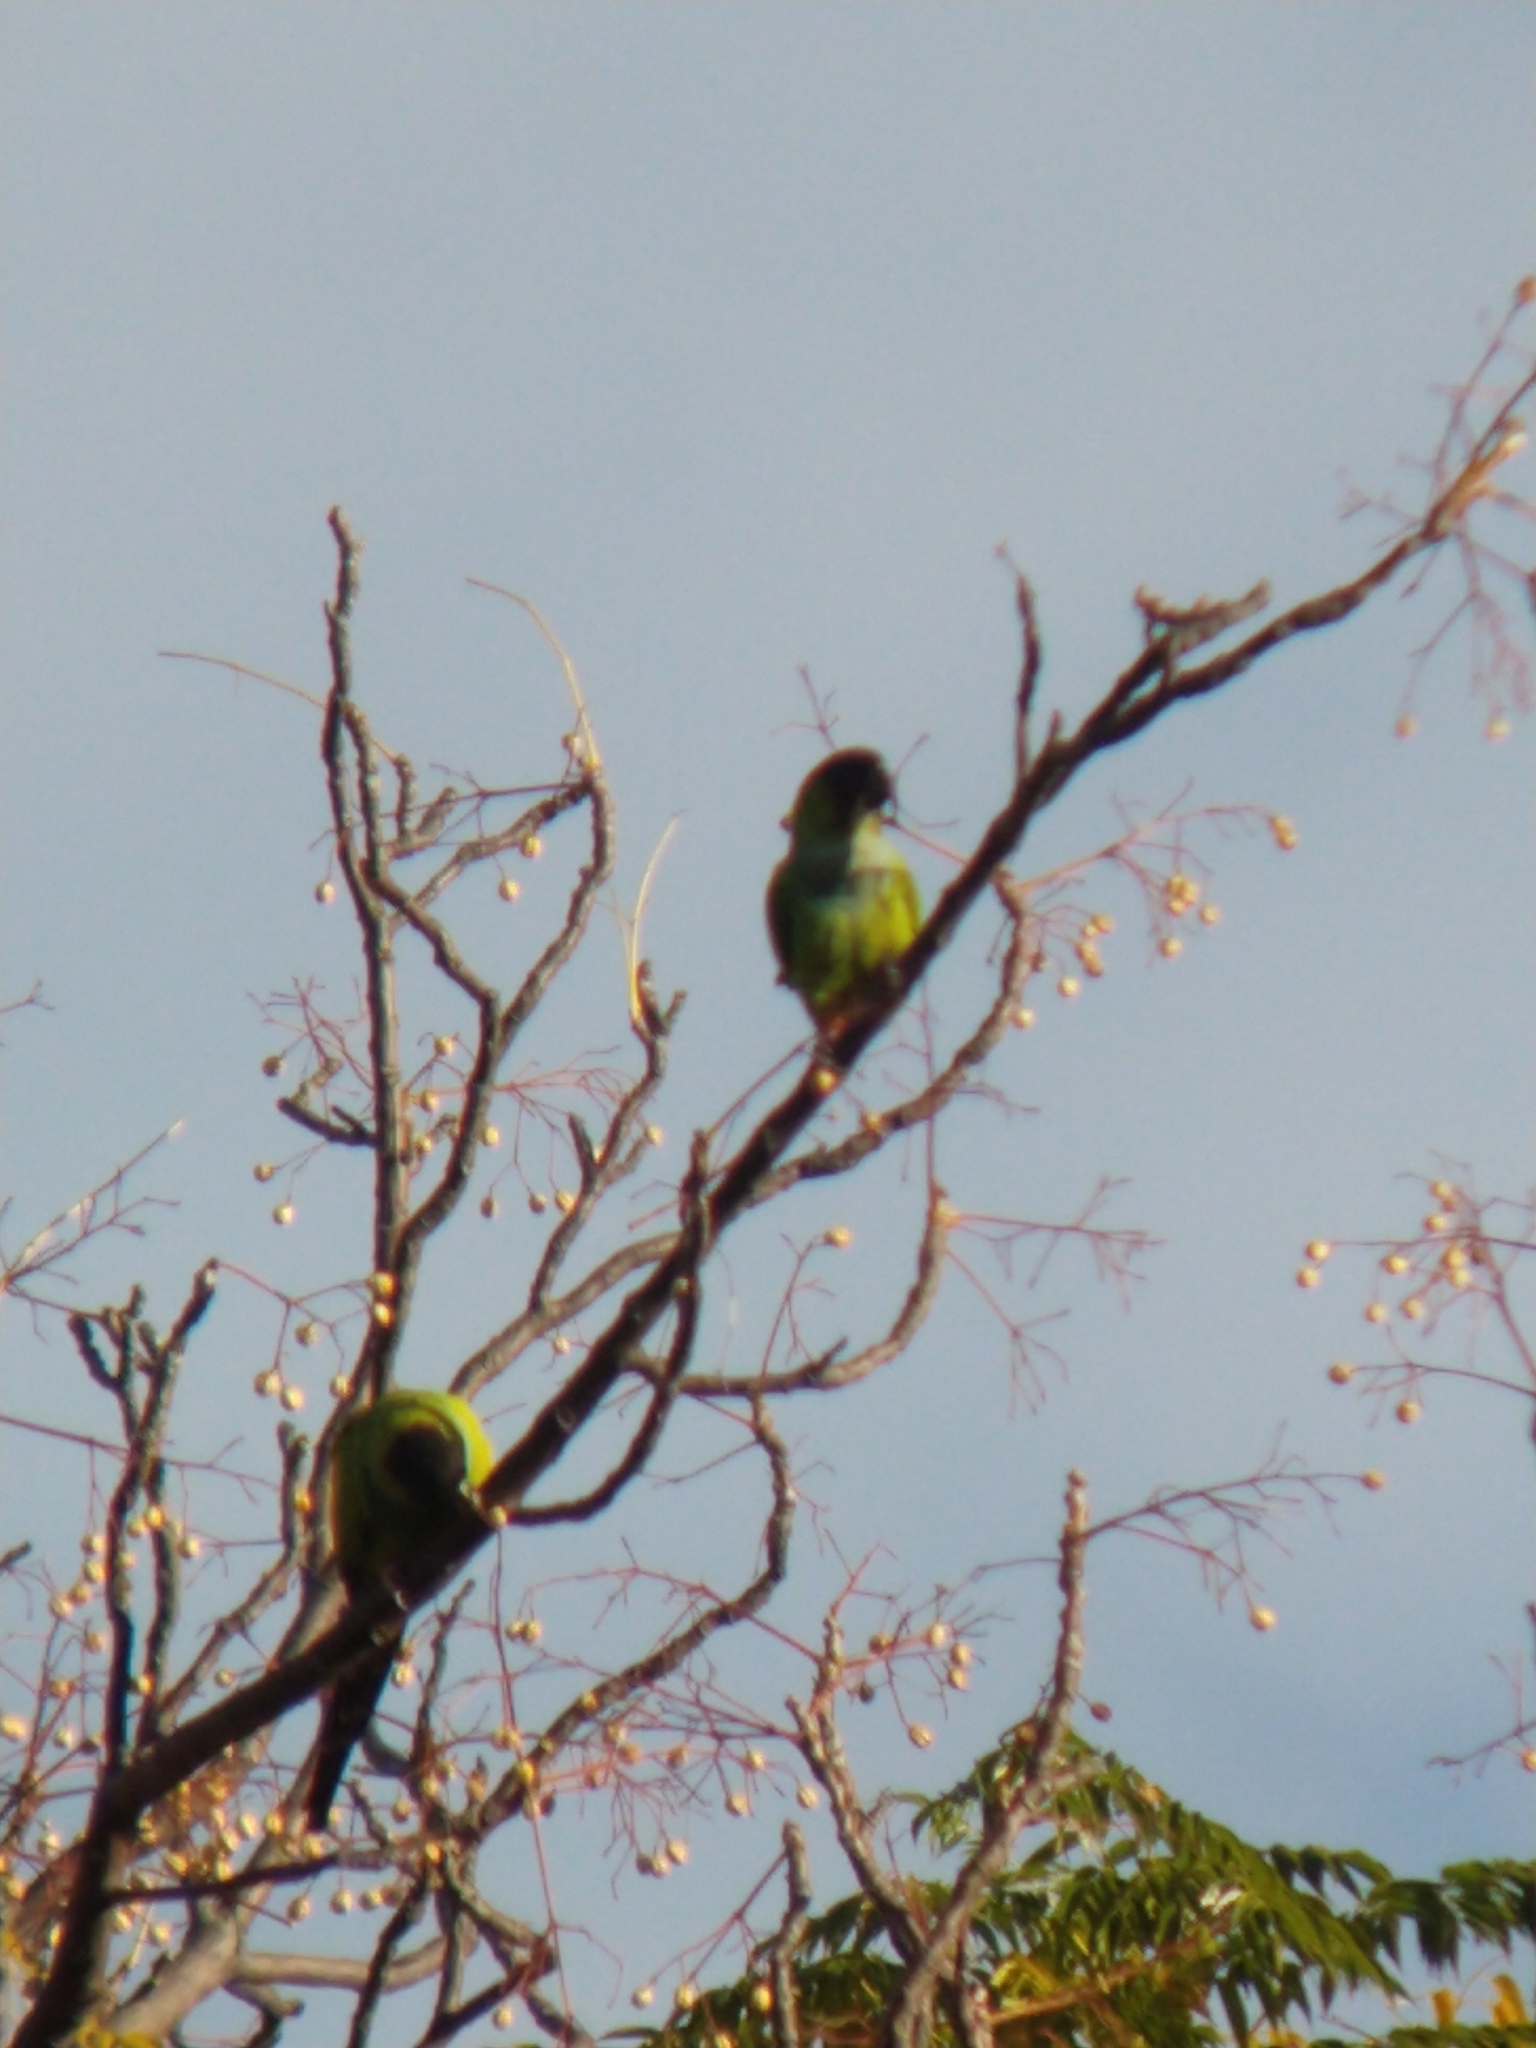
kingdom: Animalia
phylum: Chordata
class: Aves
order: Psittaciformes
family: Psittacidae
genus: Nandayus
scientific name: Nandayus nenday
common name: Nanday parakeet
